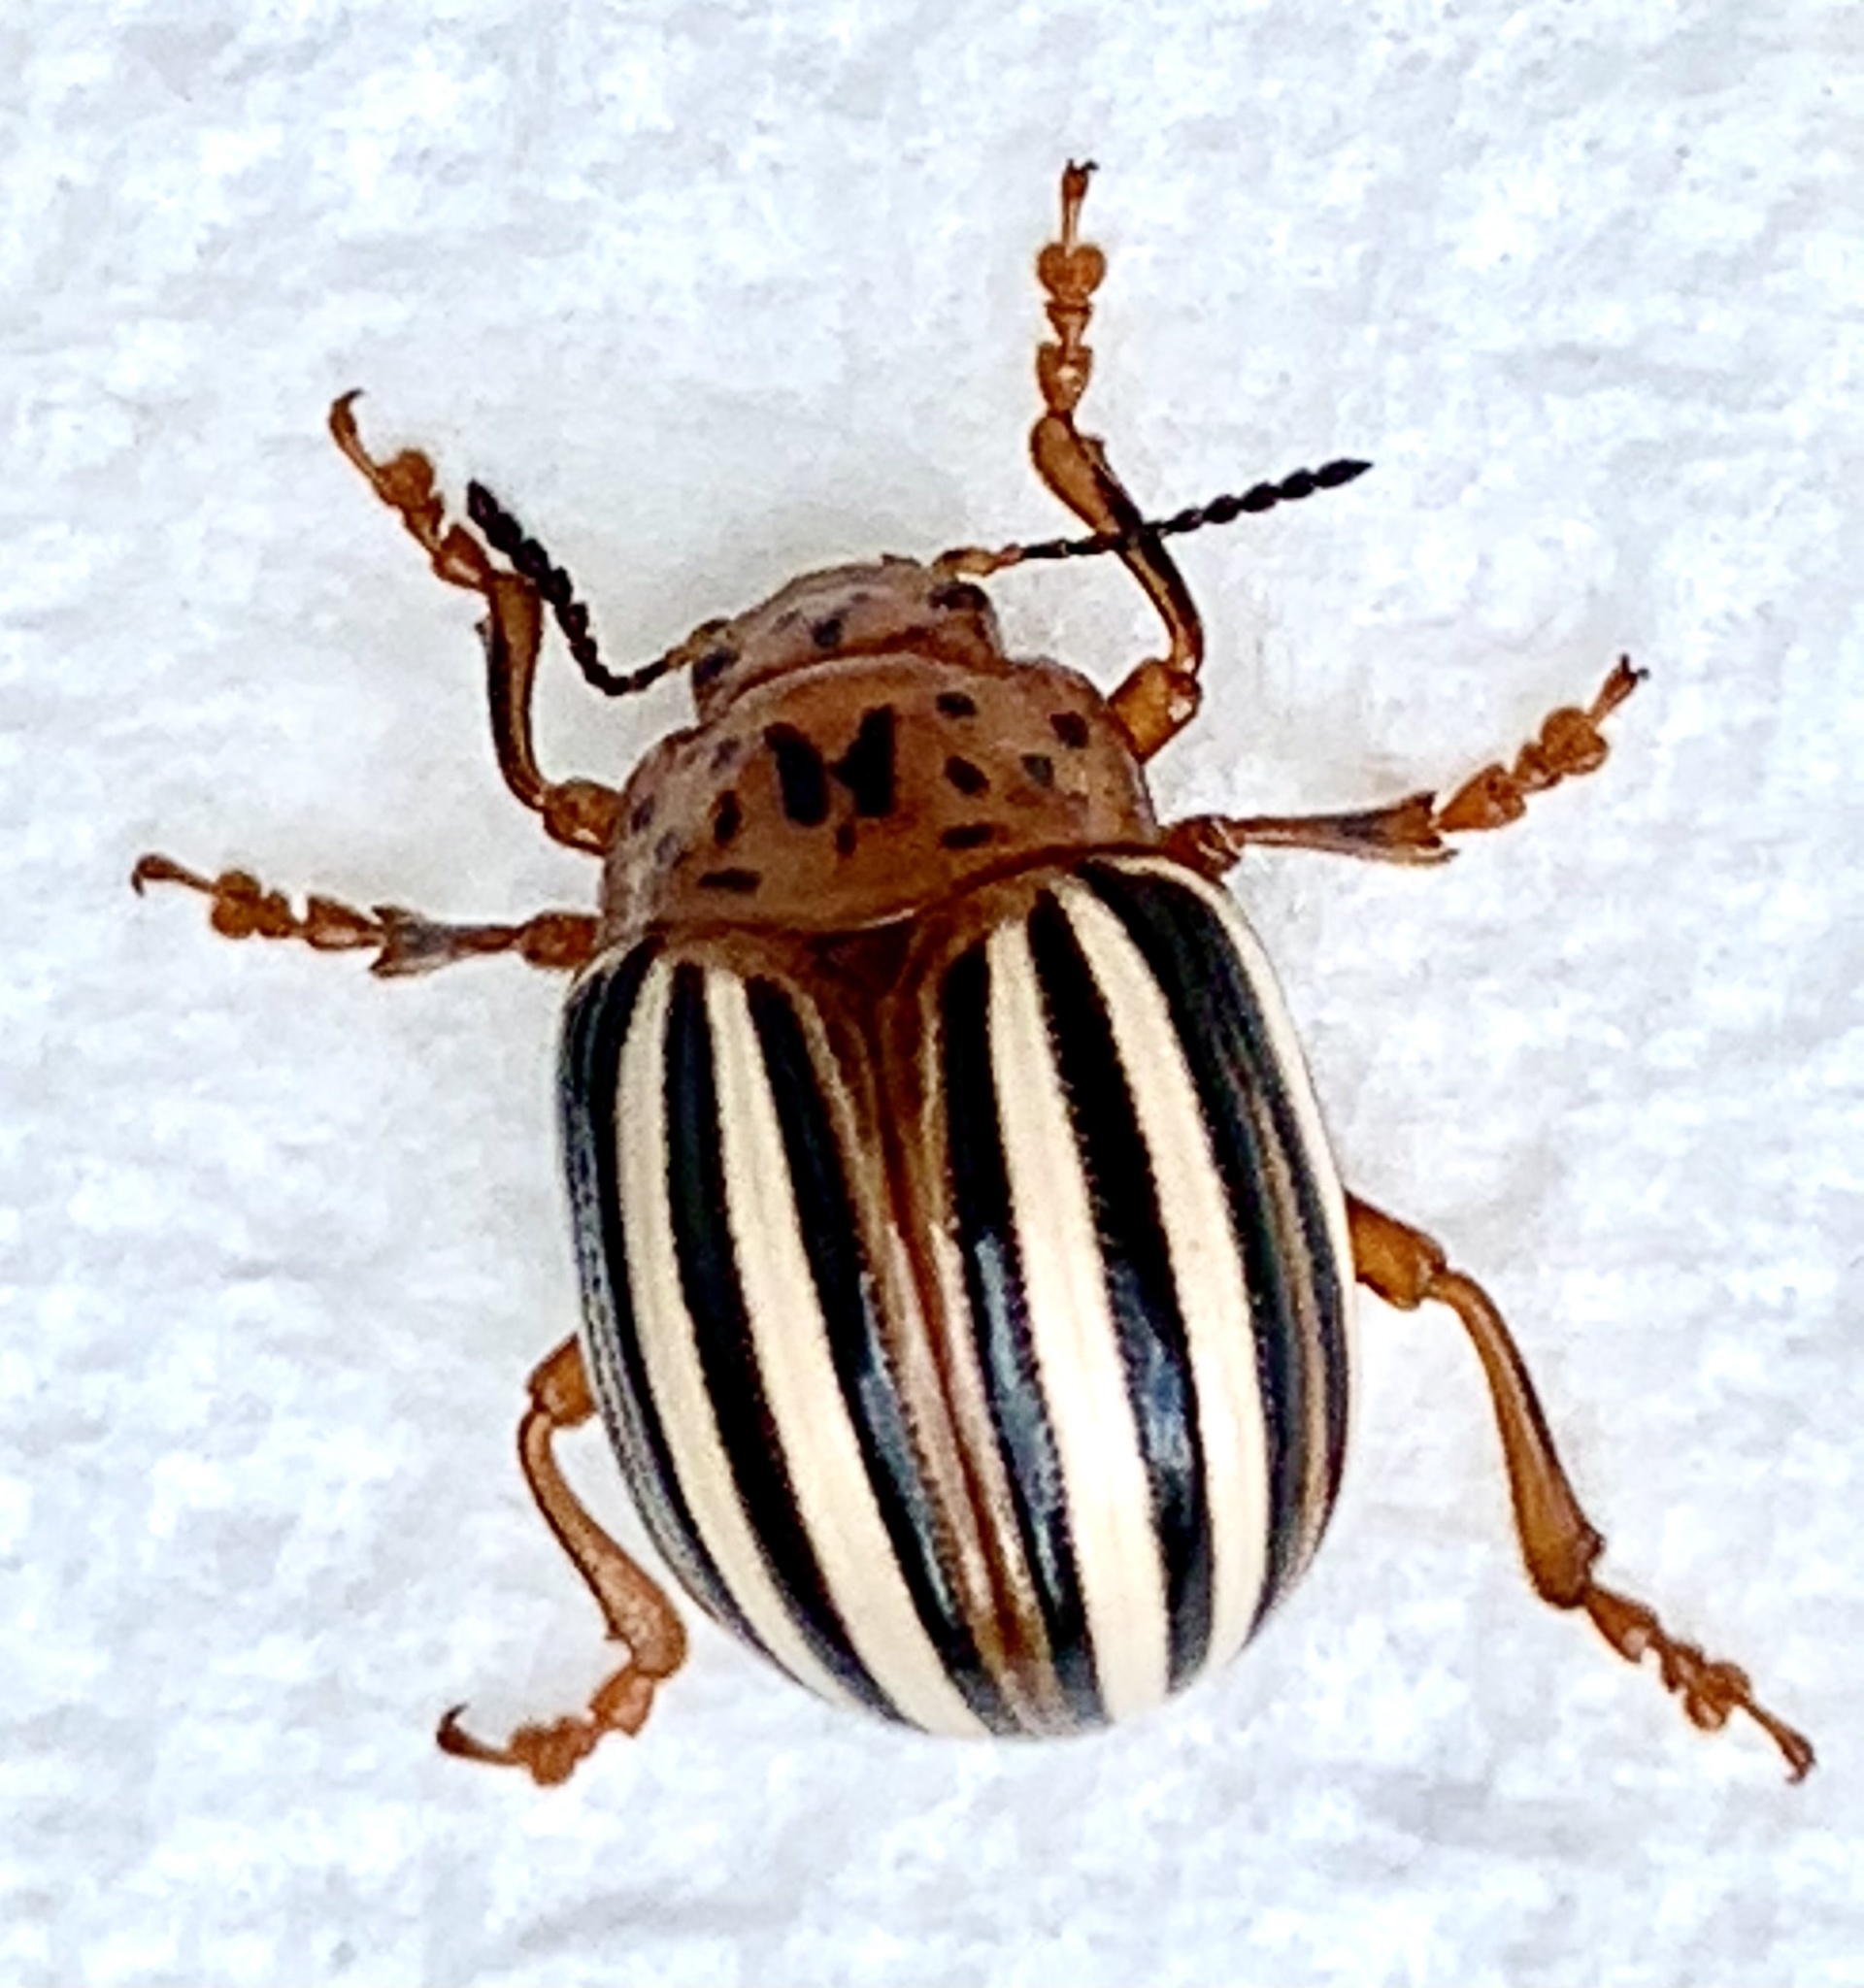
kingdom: Animalia
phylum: Arthropoda
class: Insecta
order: Coleoptera
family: Chrysomelidae
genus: Leptinotarsa
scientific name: Leptinotarsa juncta
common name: False potato beetle
